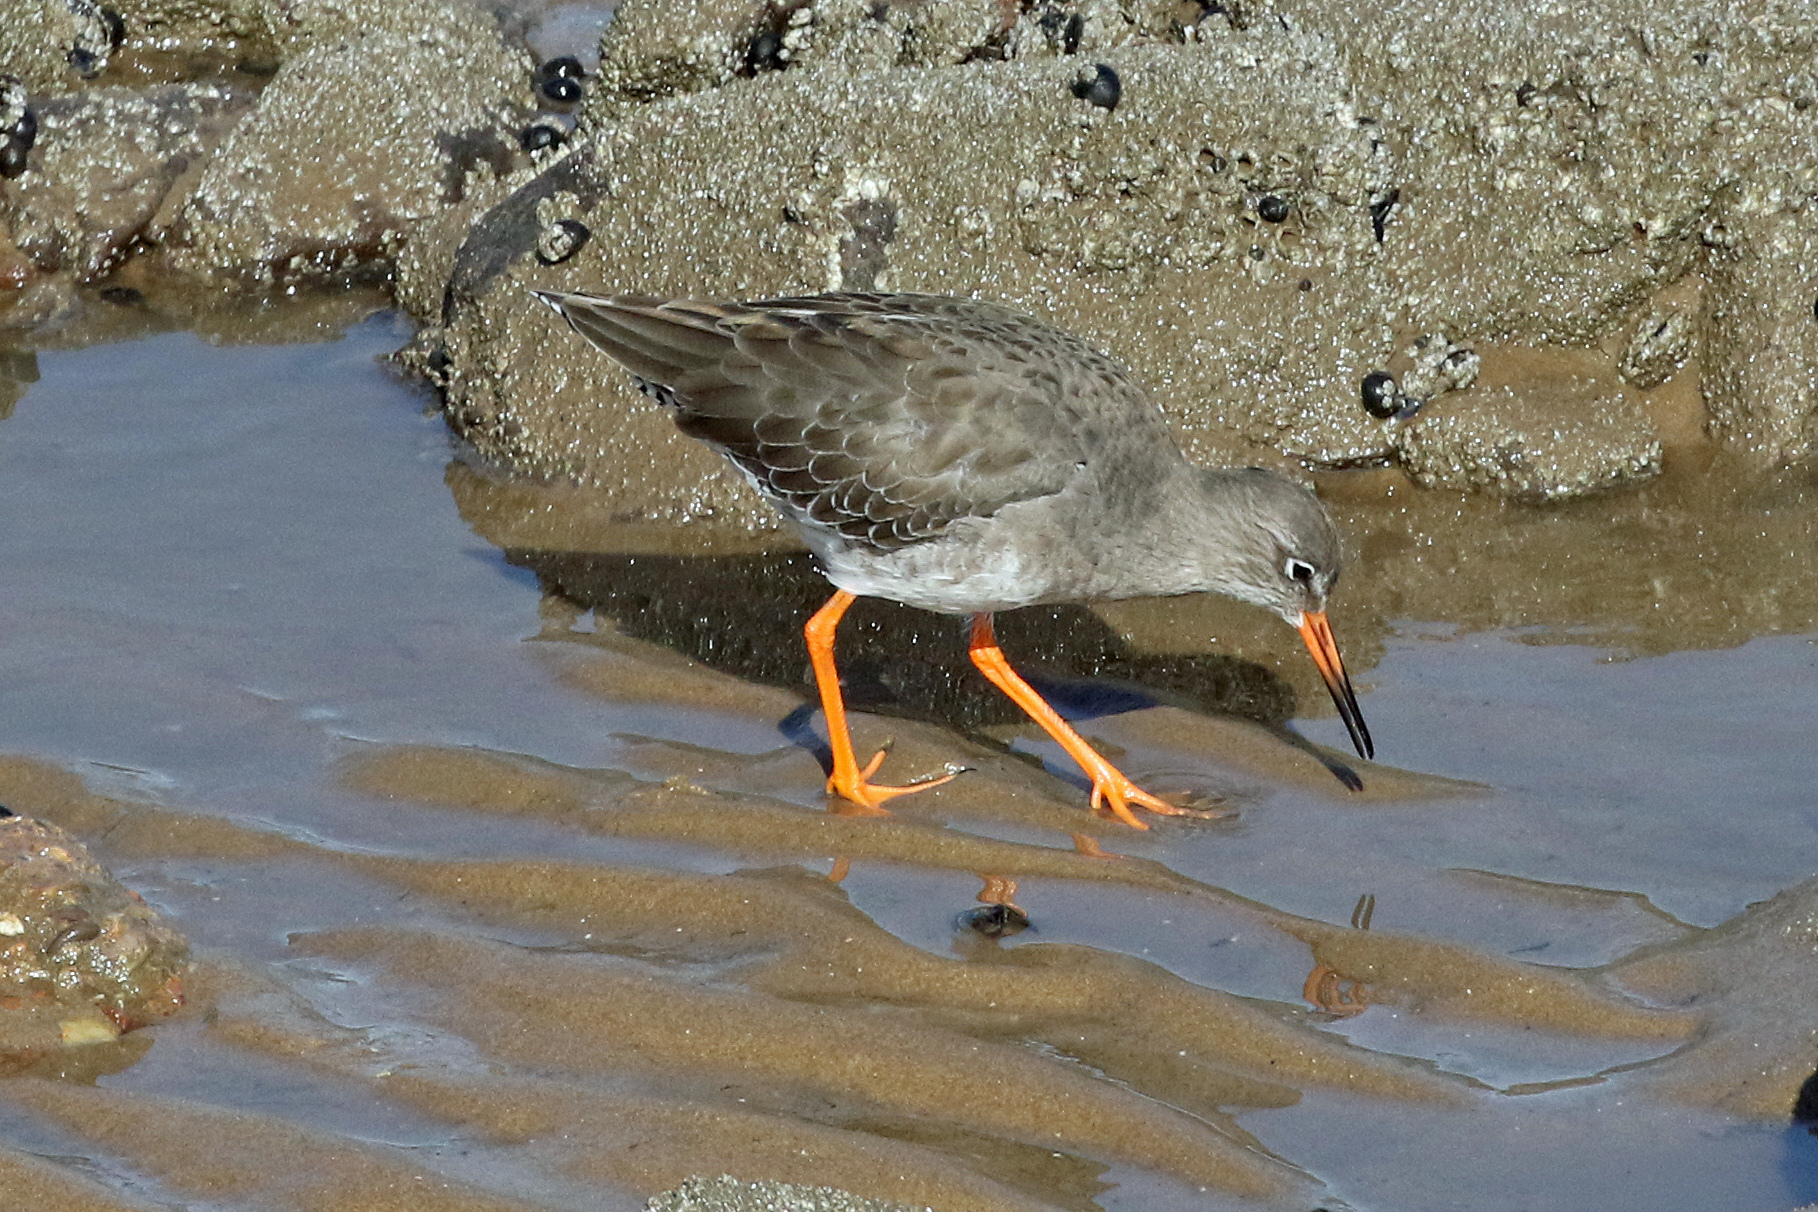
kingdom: Animalia
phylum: Chordata
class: Aves
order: Charadriiformes
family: Scolopacidae
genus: Tringa
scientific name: Tringa totanus
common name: Common redshank
